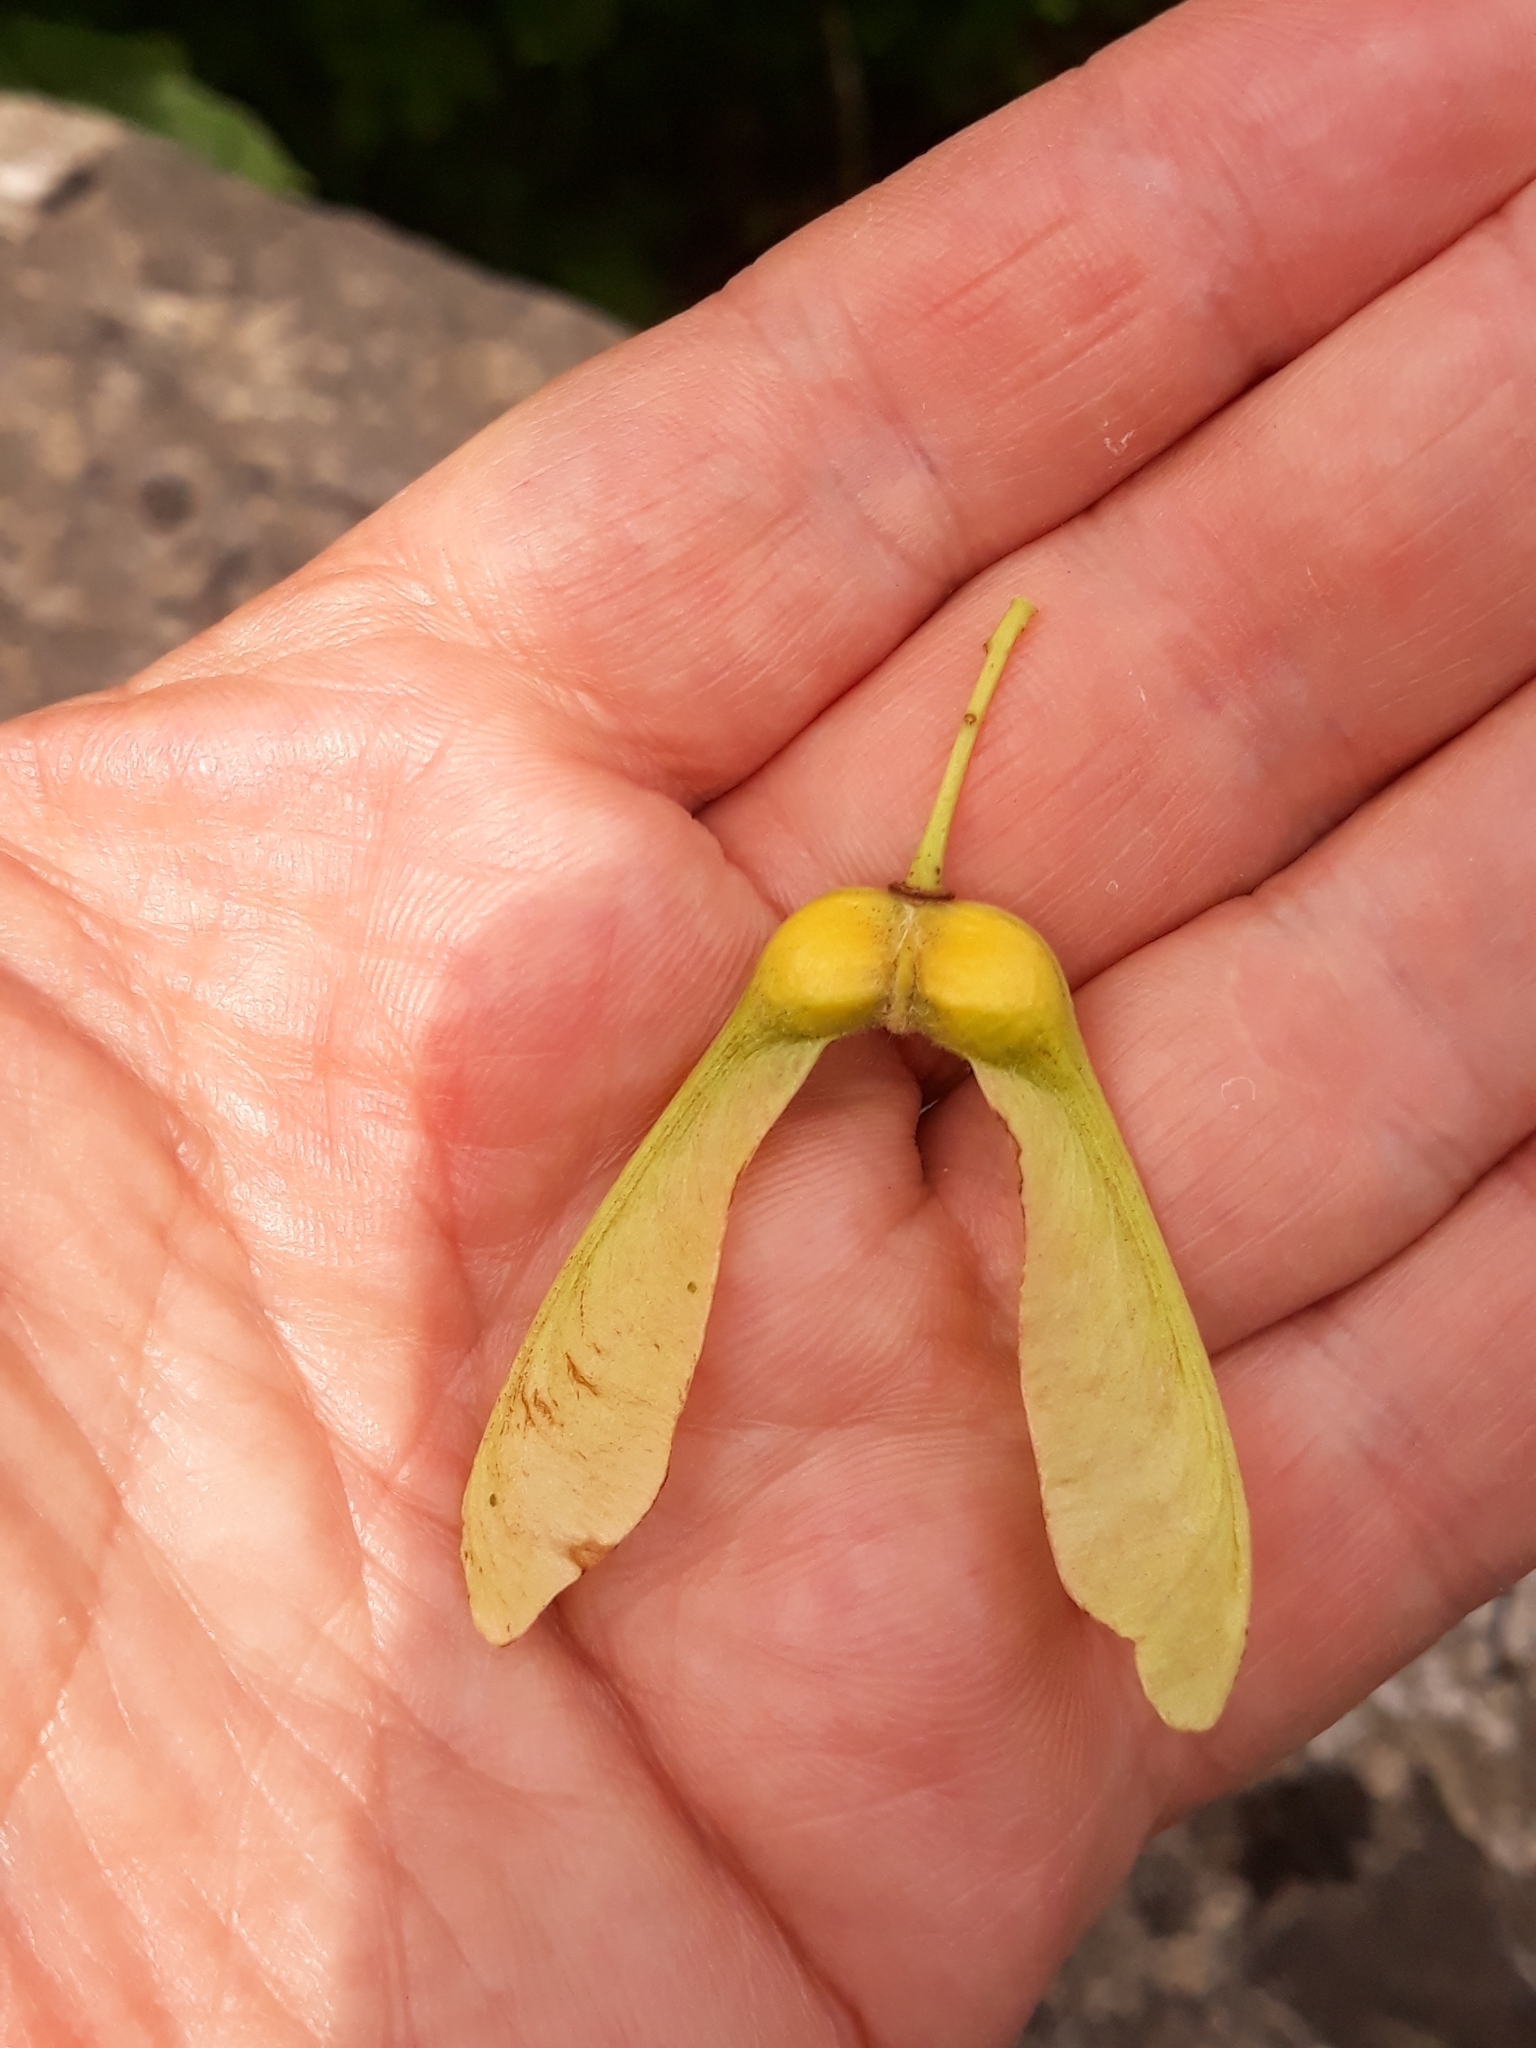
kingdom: Plantae
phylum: Tracheophyta
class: Magnoliopsida
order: Sapindales
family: Sapindaceae
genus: Acer
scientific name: Acer pseudoplatanus
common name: Sycamore
